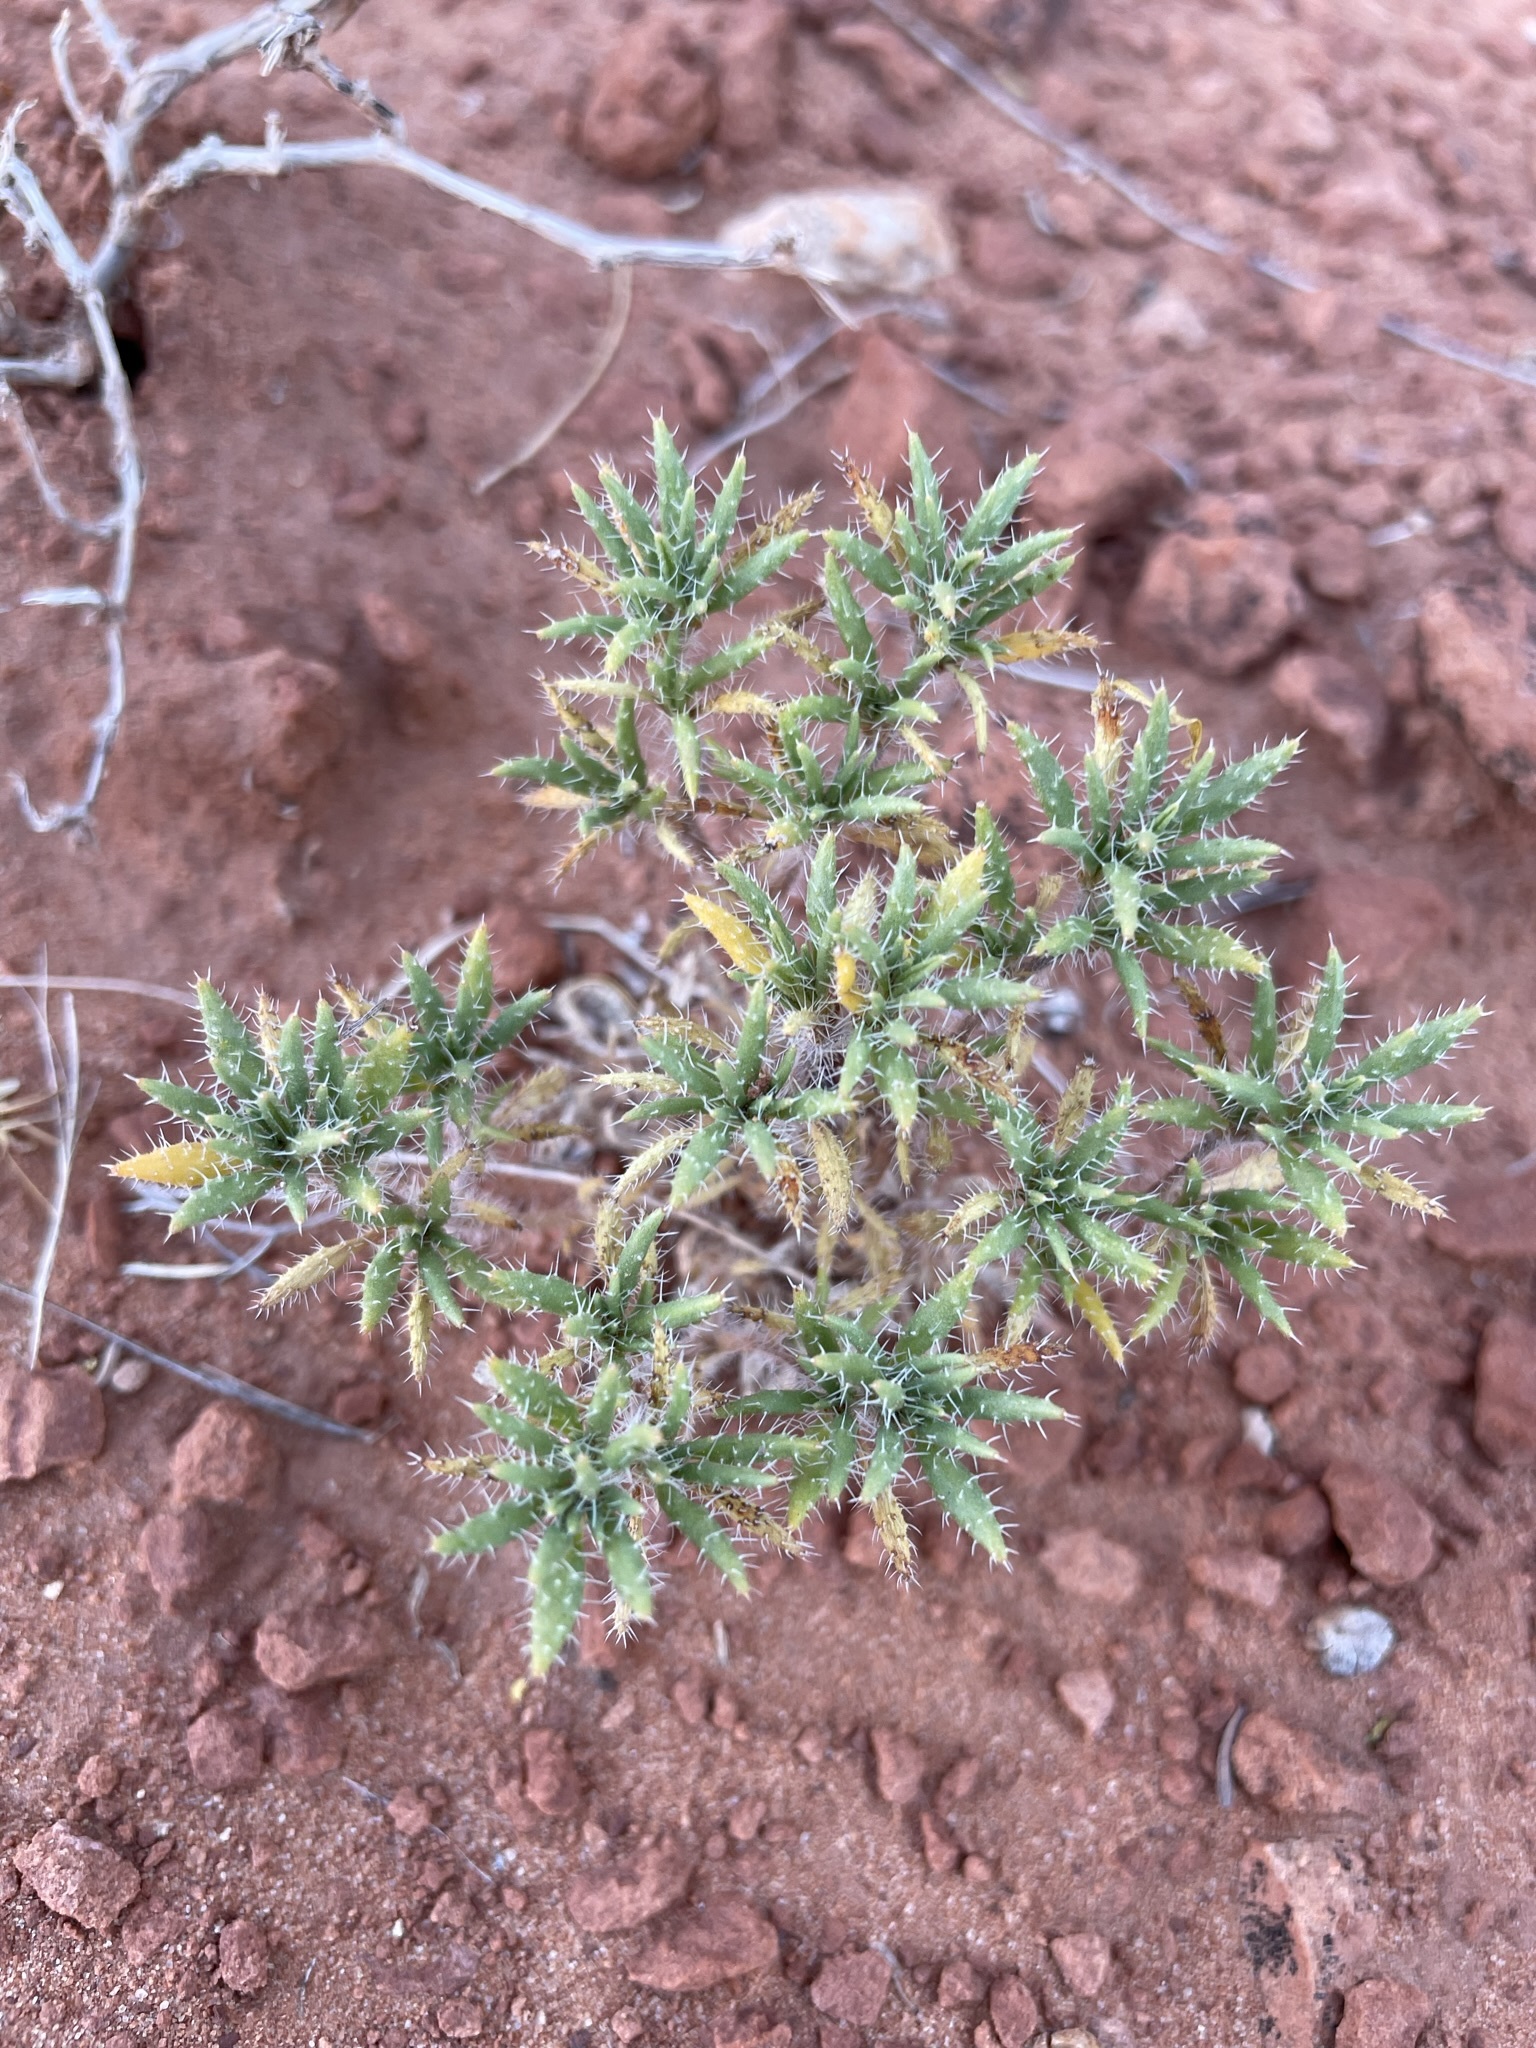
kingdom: Plantae
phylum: Tracheophyta
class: Magnoliopsida
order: Boraginales
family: Ehretiaceae
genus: Tiquilia
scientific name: Tiquilia latior
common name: Matted tiquilia
